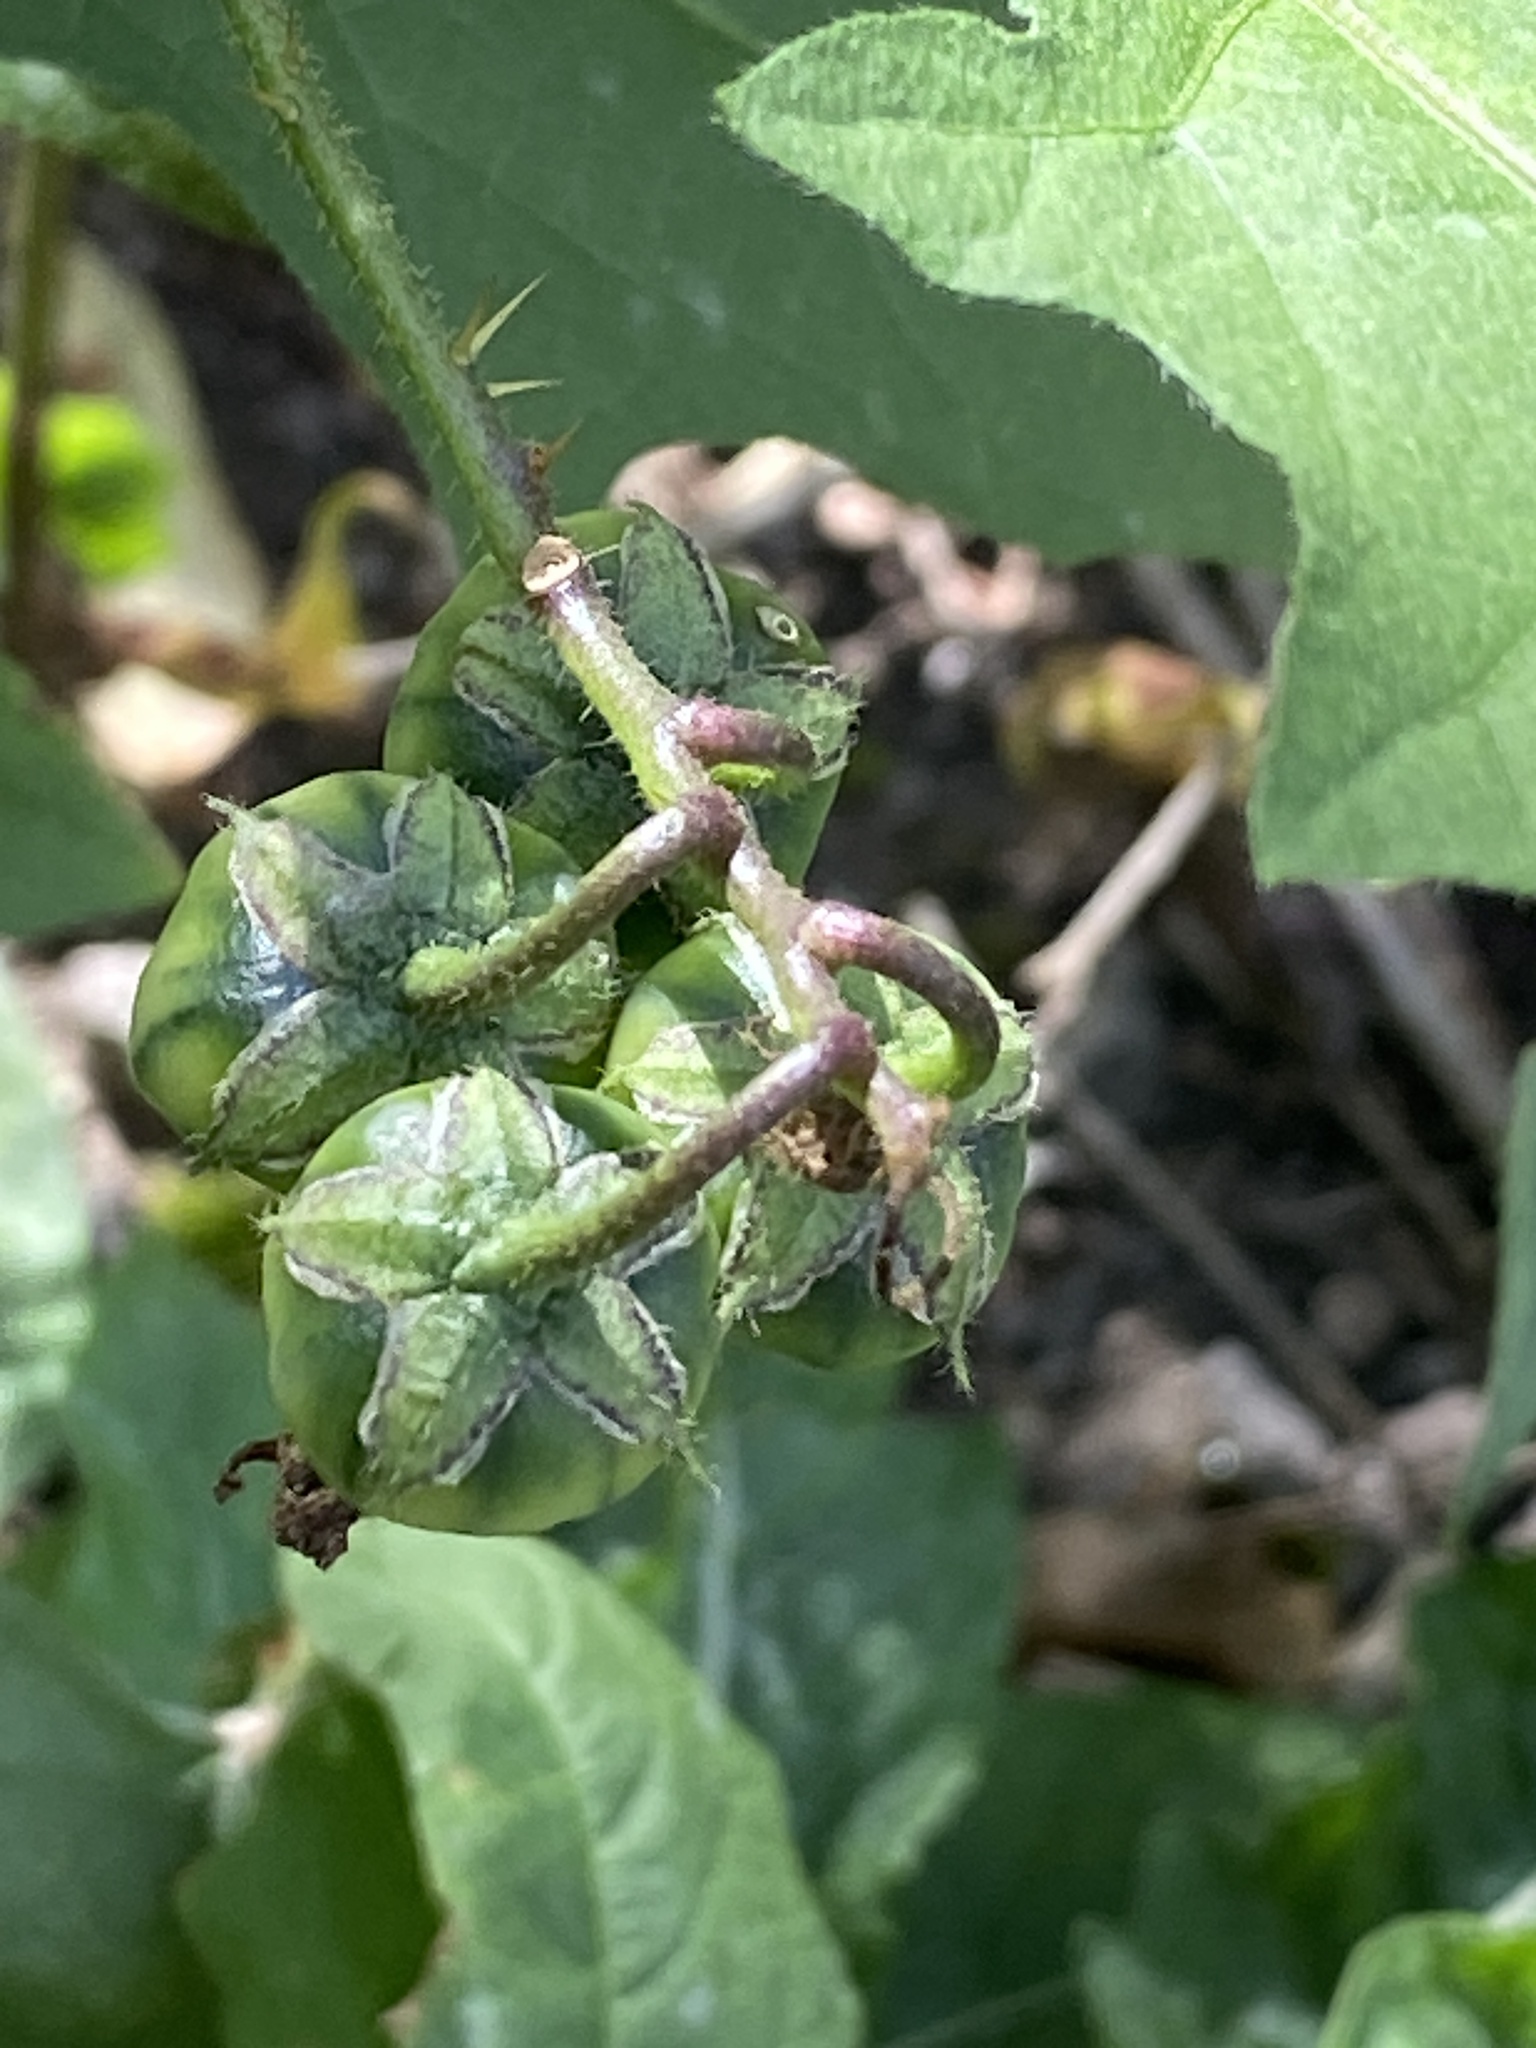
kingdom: Plantae
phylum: Tracheophyta
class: Magnoliopsida
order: Solanales
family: Solanaceae
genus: Solanum
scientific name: Solanum carolinense
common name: Horse-nettle
